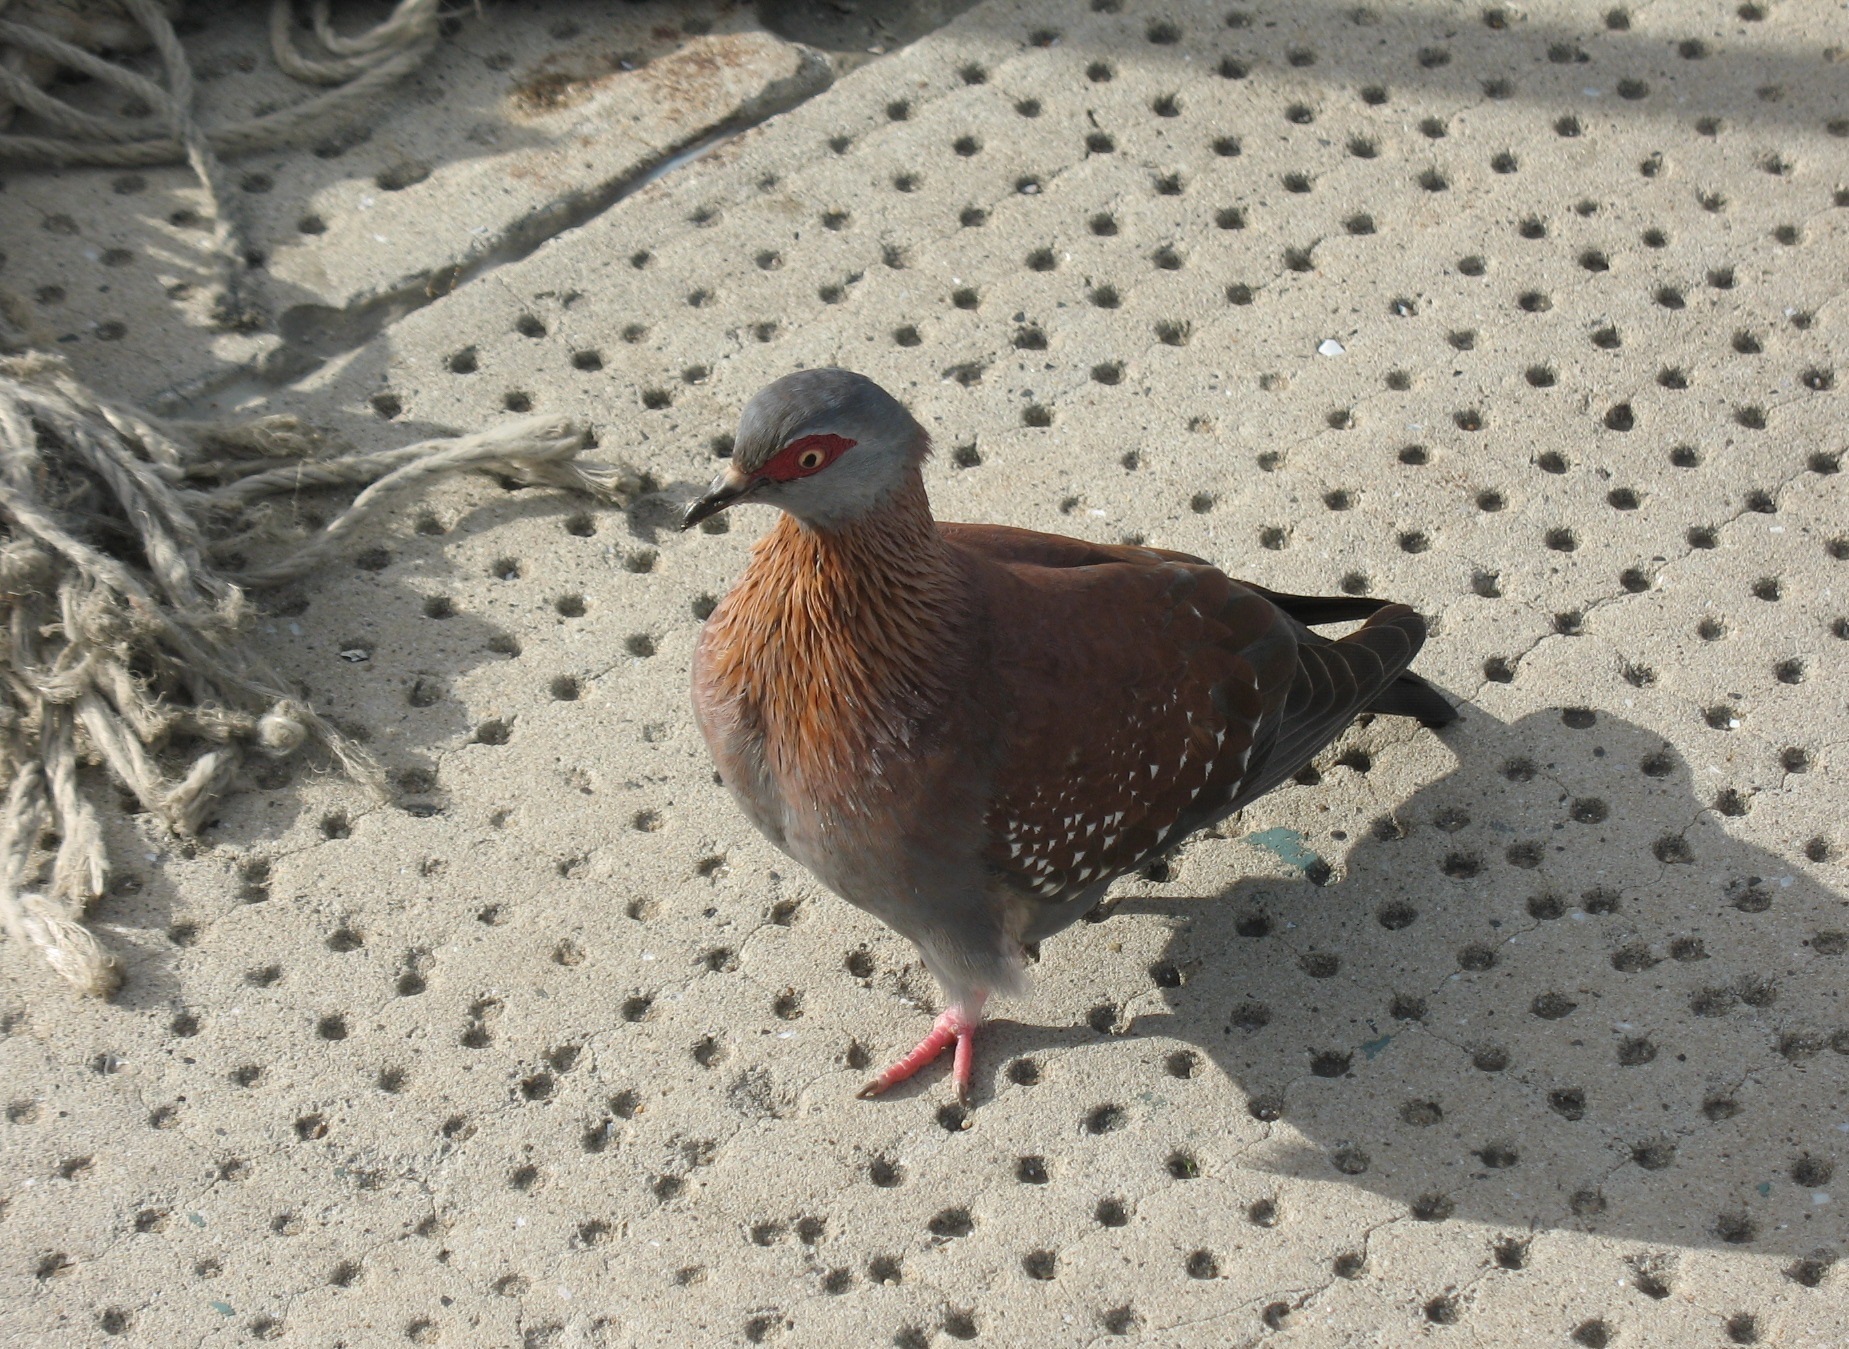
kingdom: Animalia
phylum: Chordata
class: Aves
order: Columbiformes
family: Columbidae
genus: Columba
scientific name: Columba guinea
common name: Speckled pigeon
